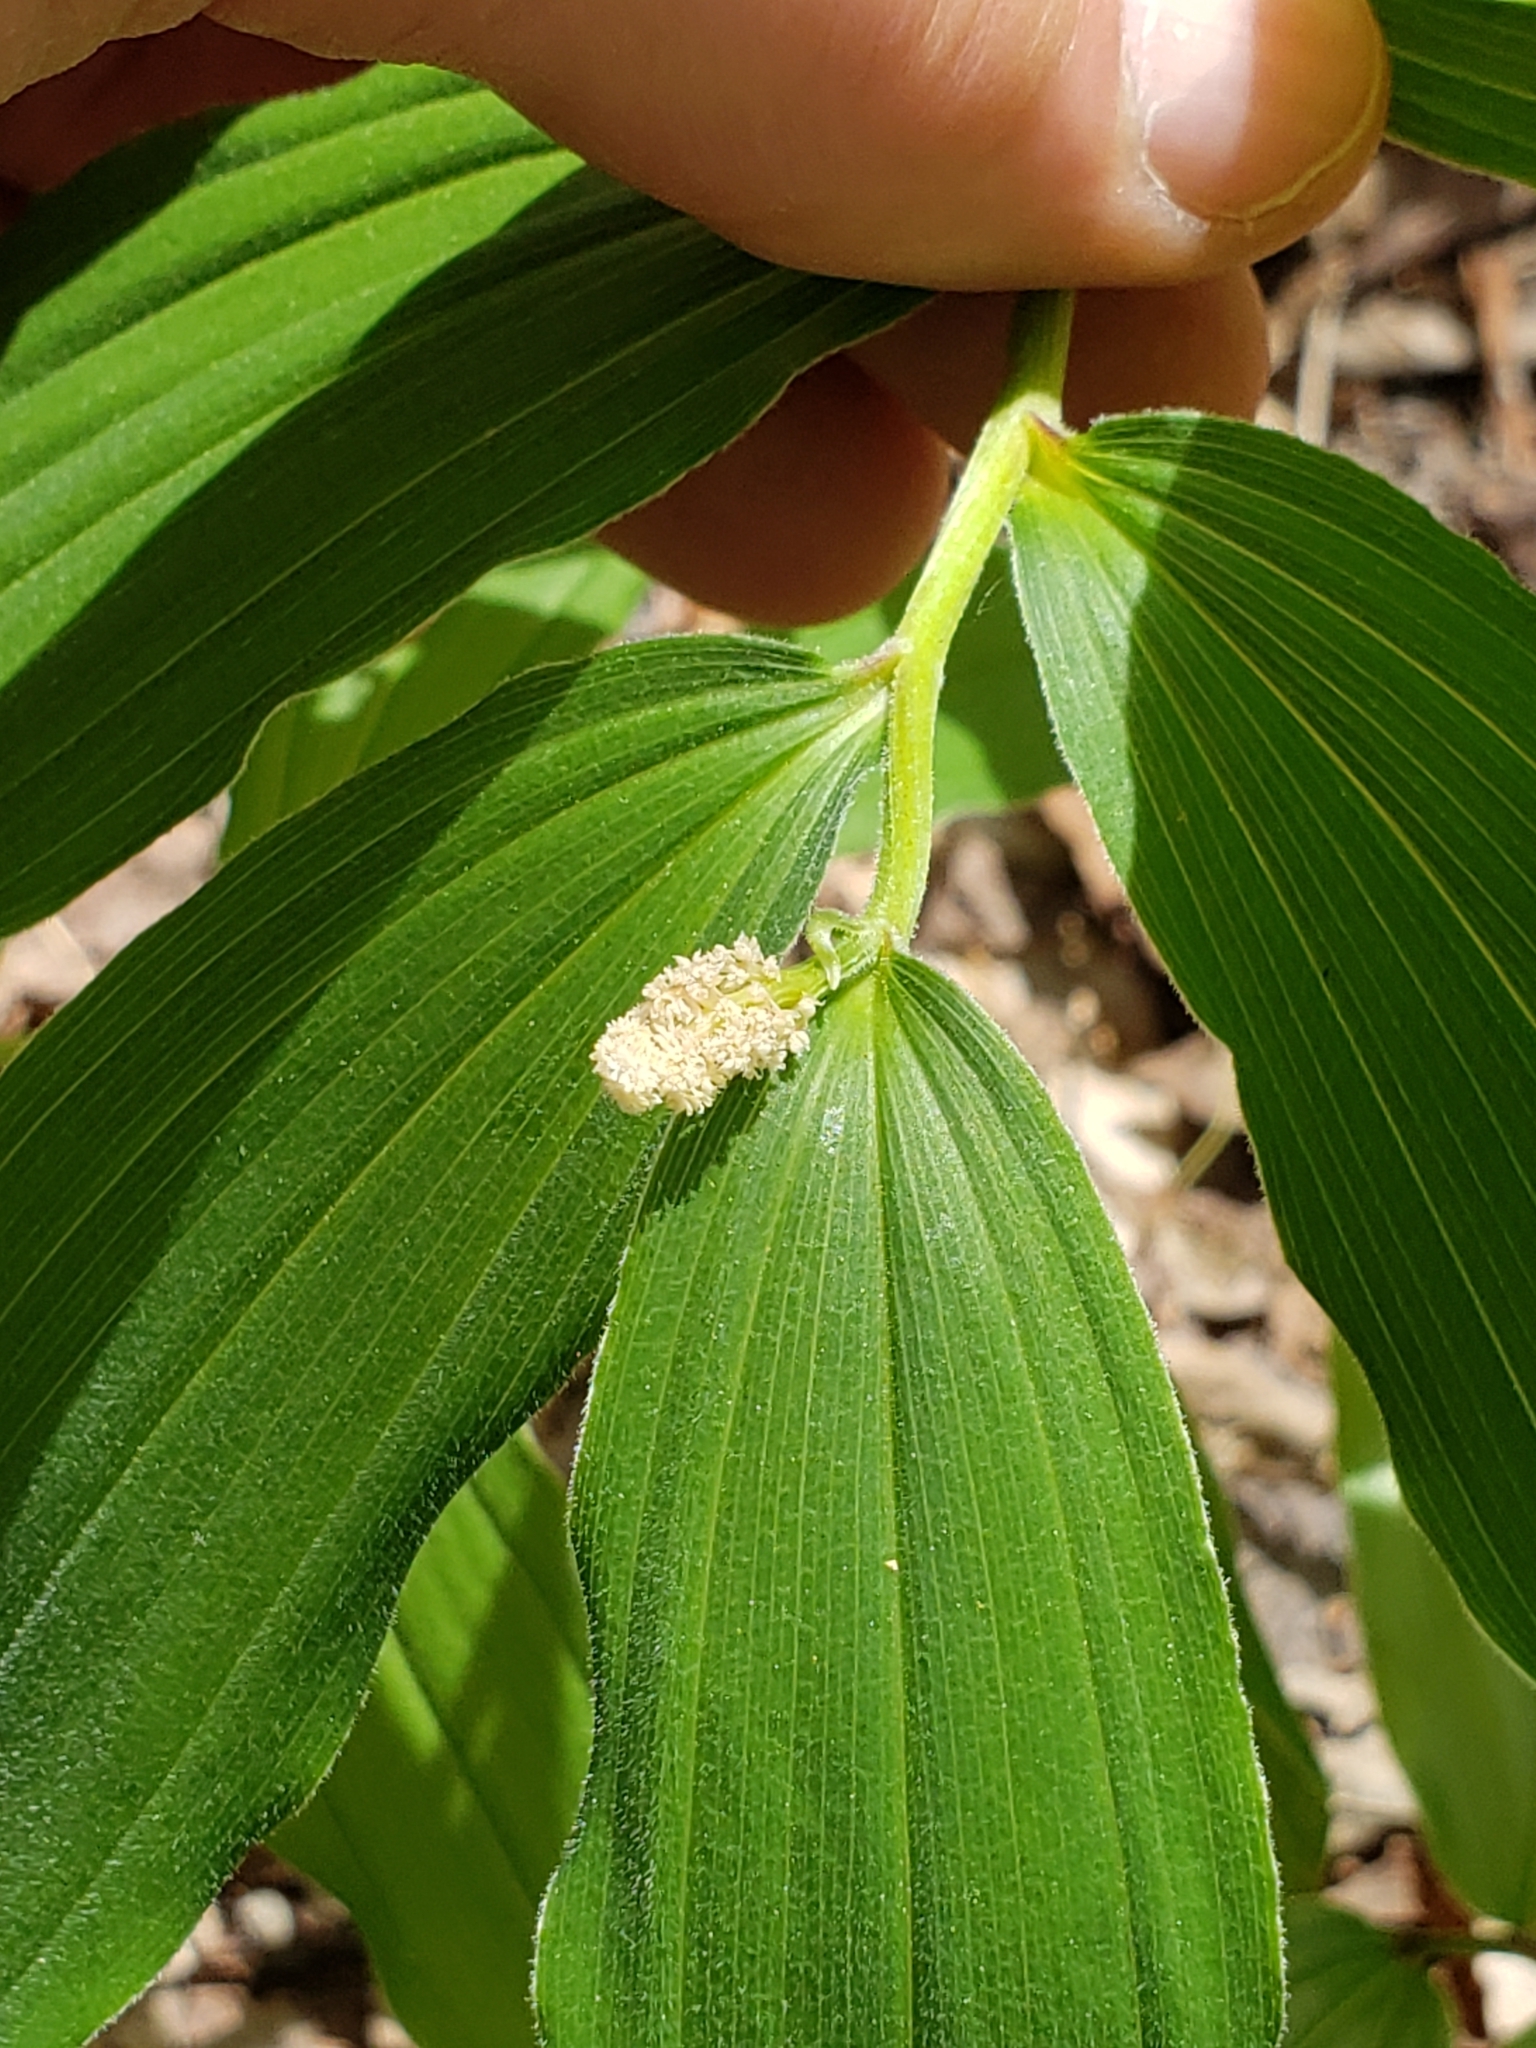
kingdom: Plantae
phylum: Tracheophyta
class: Liliopsida
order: Asparagales
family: Asparagaceae
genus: Maianthemum
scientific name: Maianthemum racemosum
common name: False spikenard
